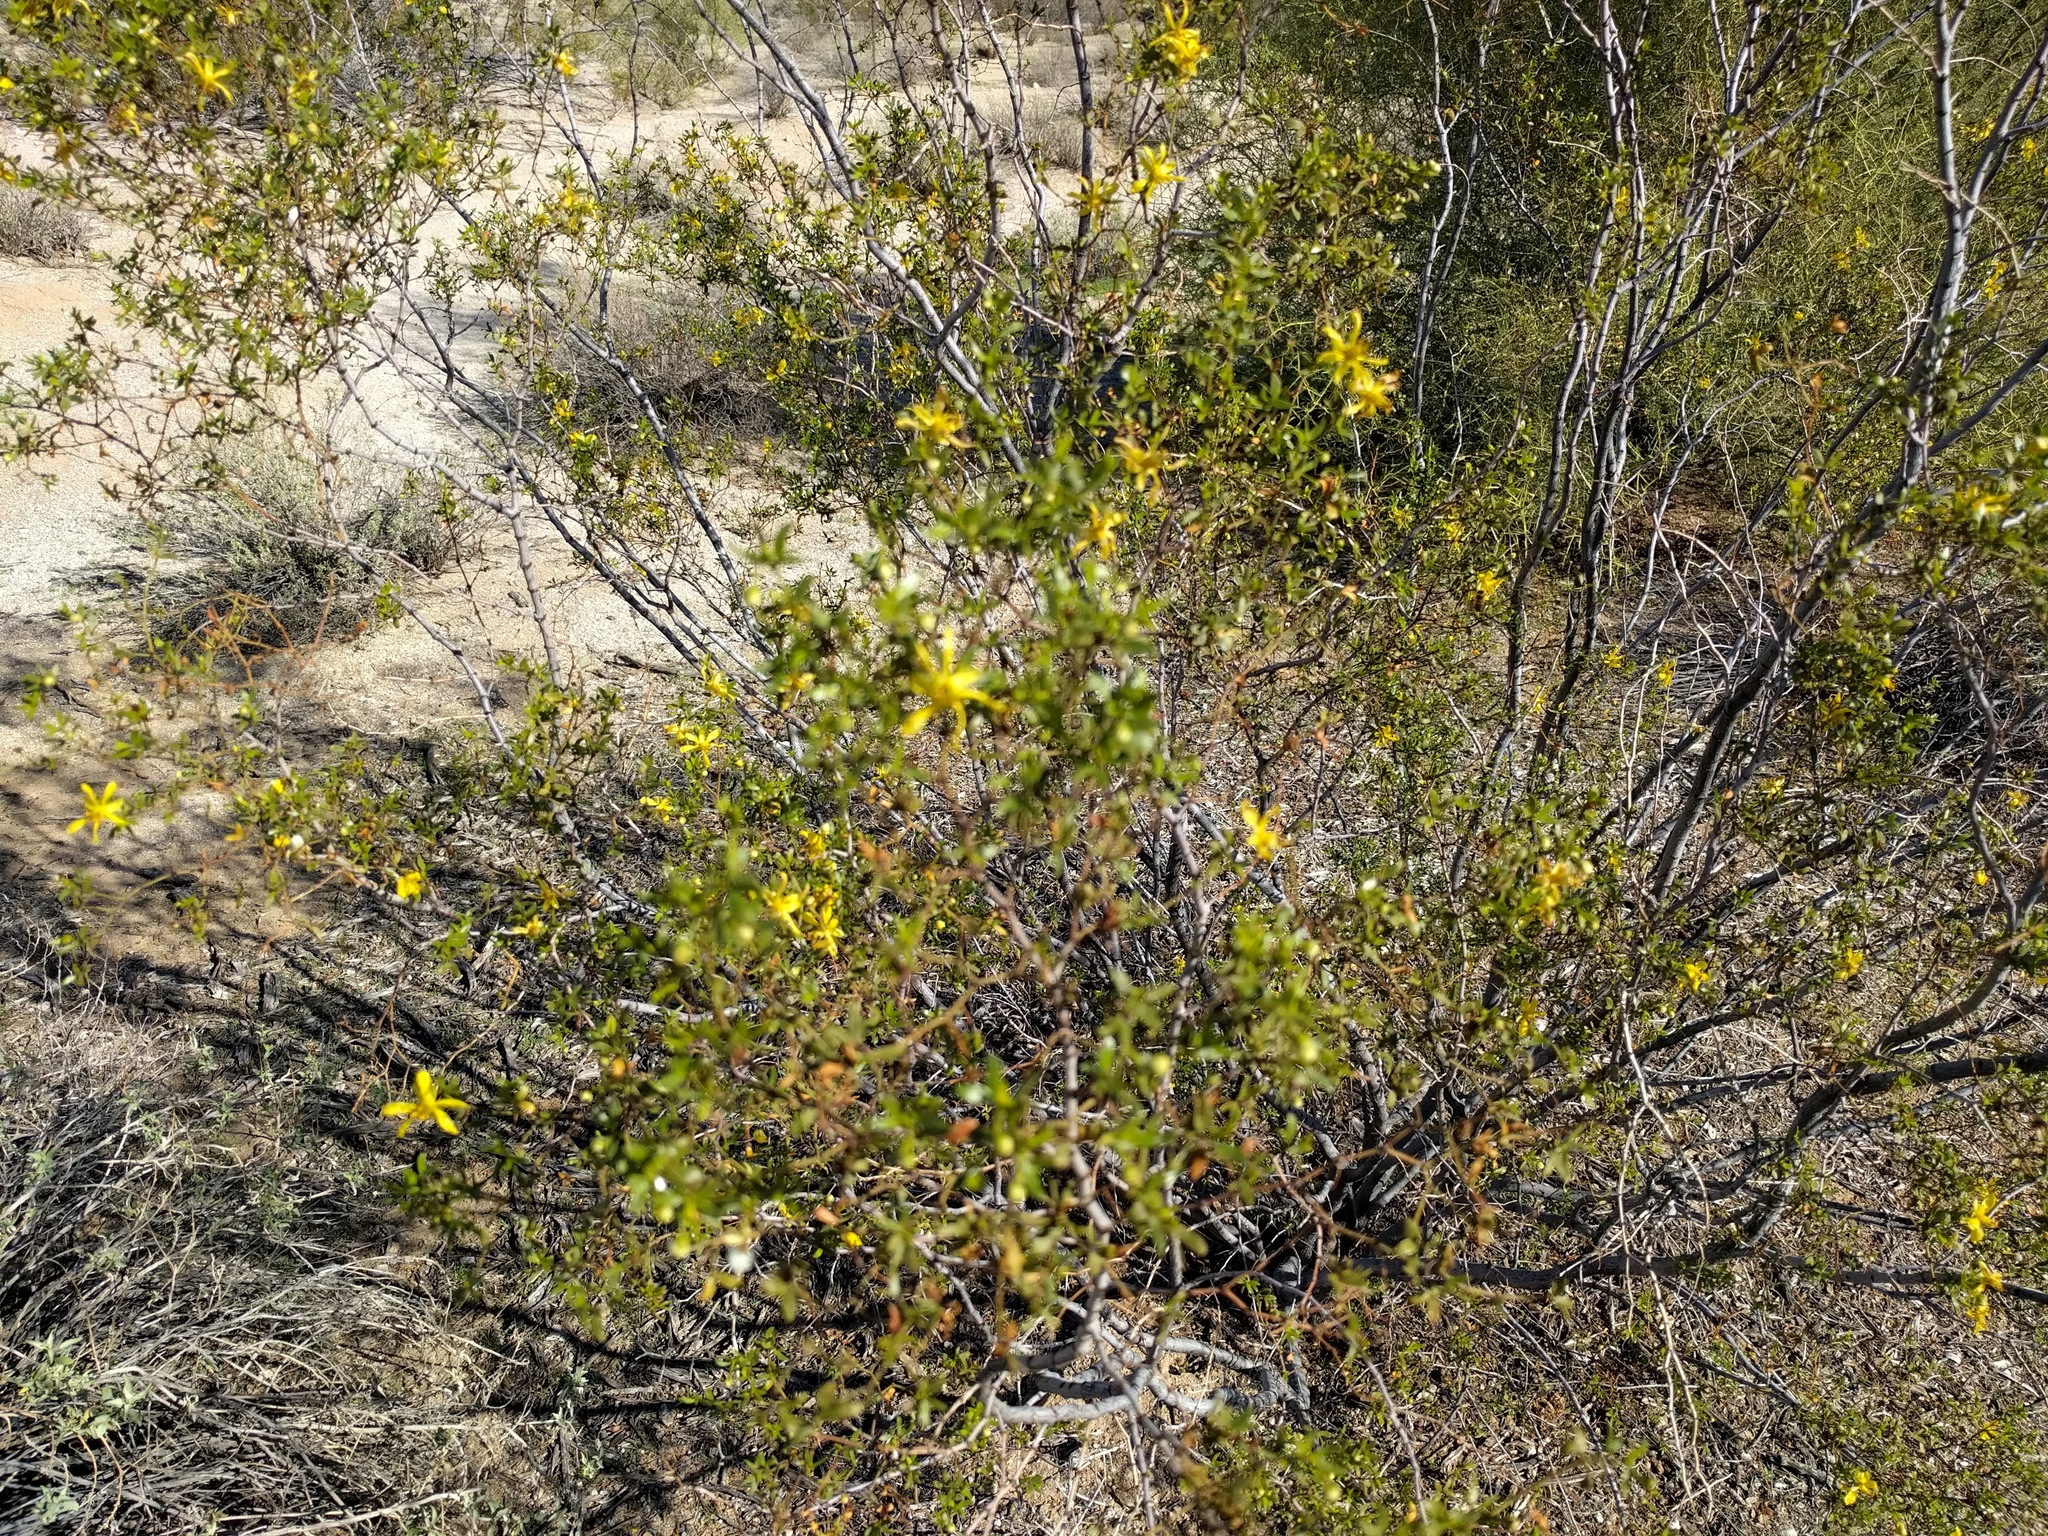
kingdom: Plantae
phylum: Tracheophyta
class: Magnoliopsida
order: Zygophyllales
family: Zygophyllaceae
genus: Larrea
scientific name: Larrea tridentata
